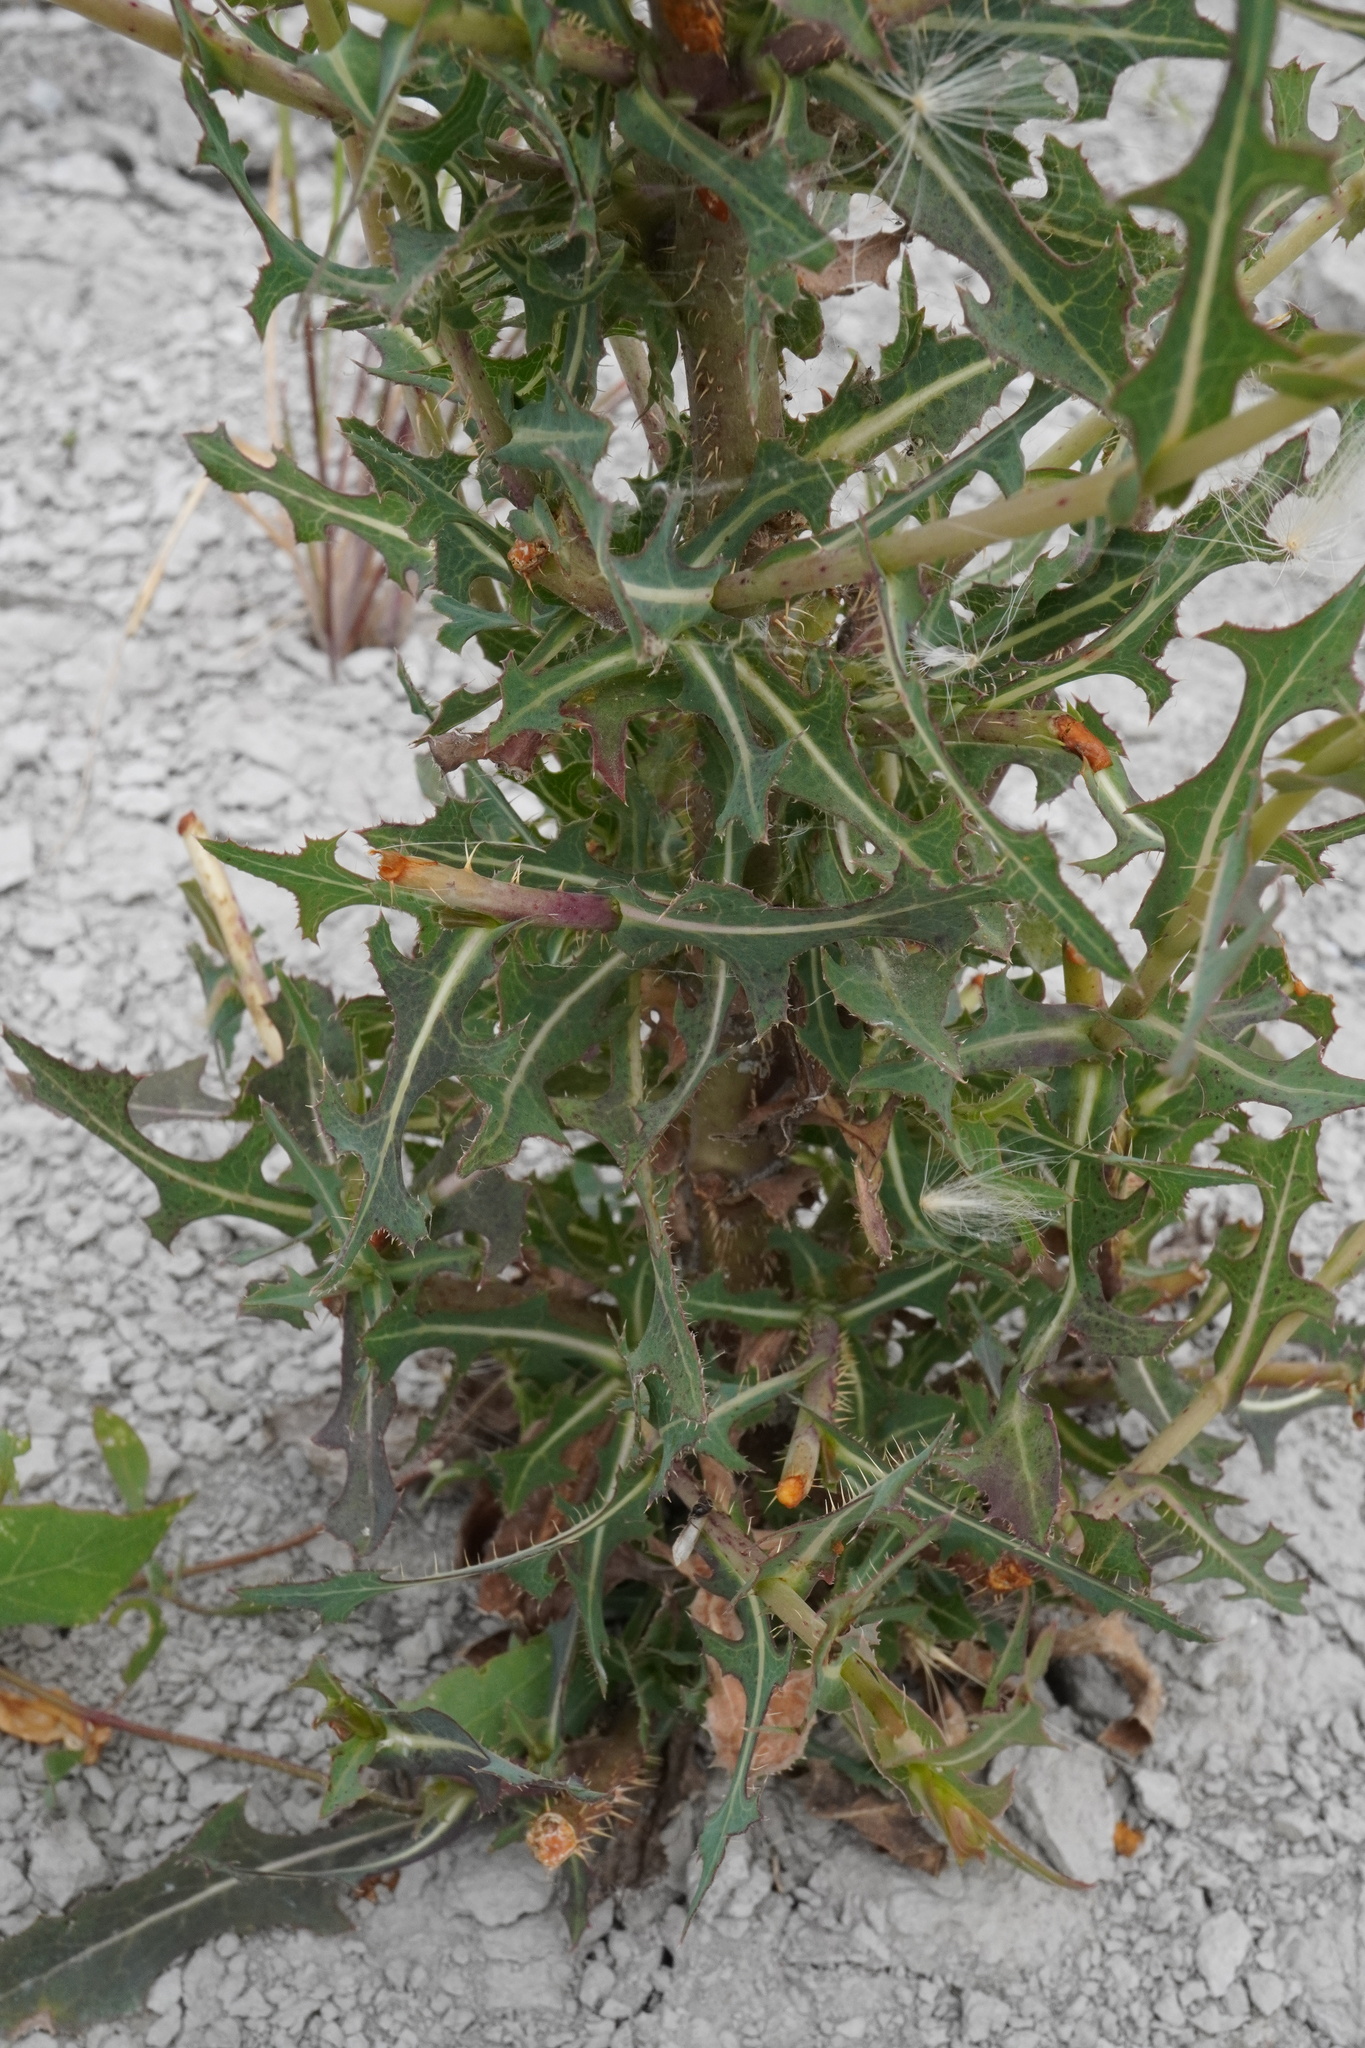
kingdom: Plantae
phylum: Tracheophyta
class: Magnoliopsida
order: Asterales
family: Asteraceae
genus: Lactuca
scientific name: Lactuca serriola
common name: Prickly lettuce
